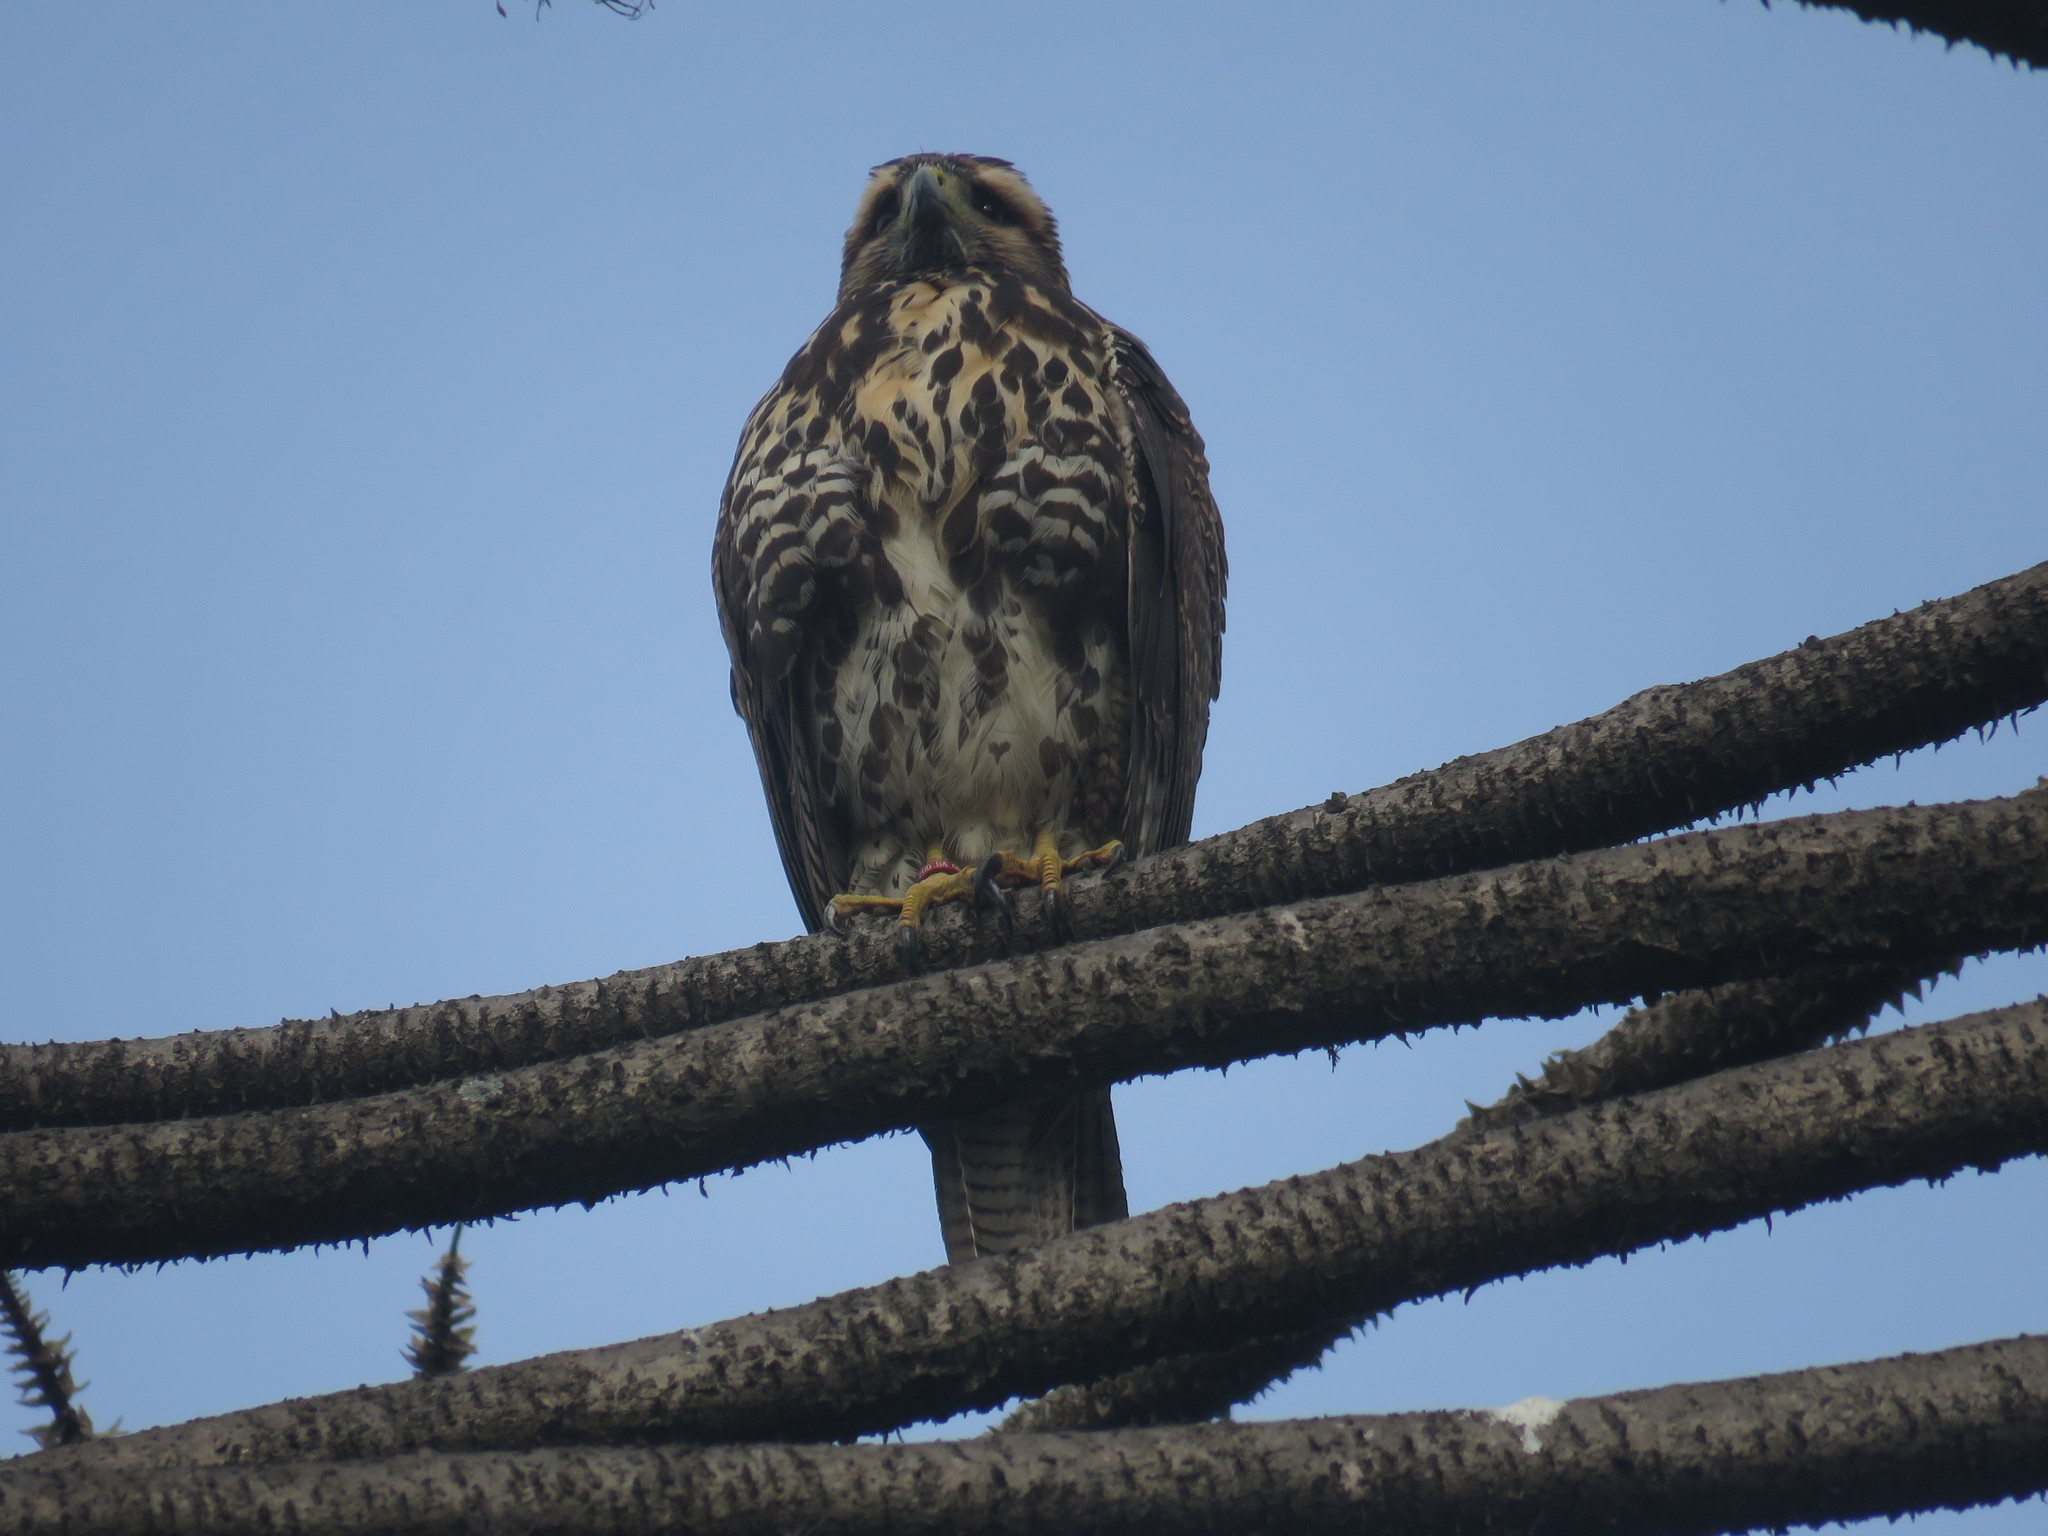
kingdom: Animalia
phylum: Chordata
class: Aves
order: Accipitriformes
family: Accipitridae
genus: Parabuteo
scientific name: Parabuteo unicinctus
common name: Harris's hawk
